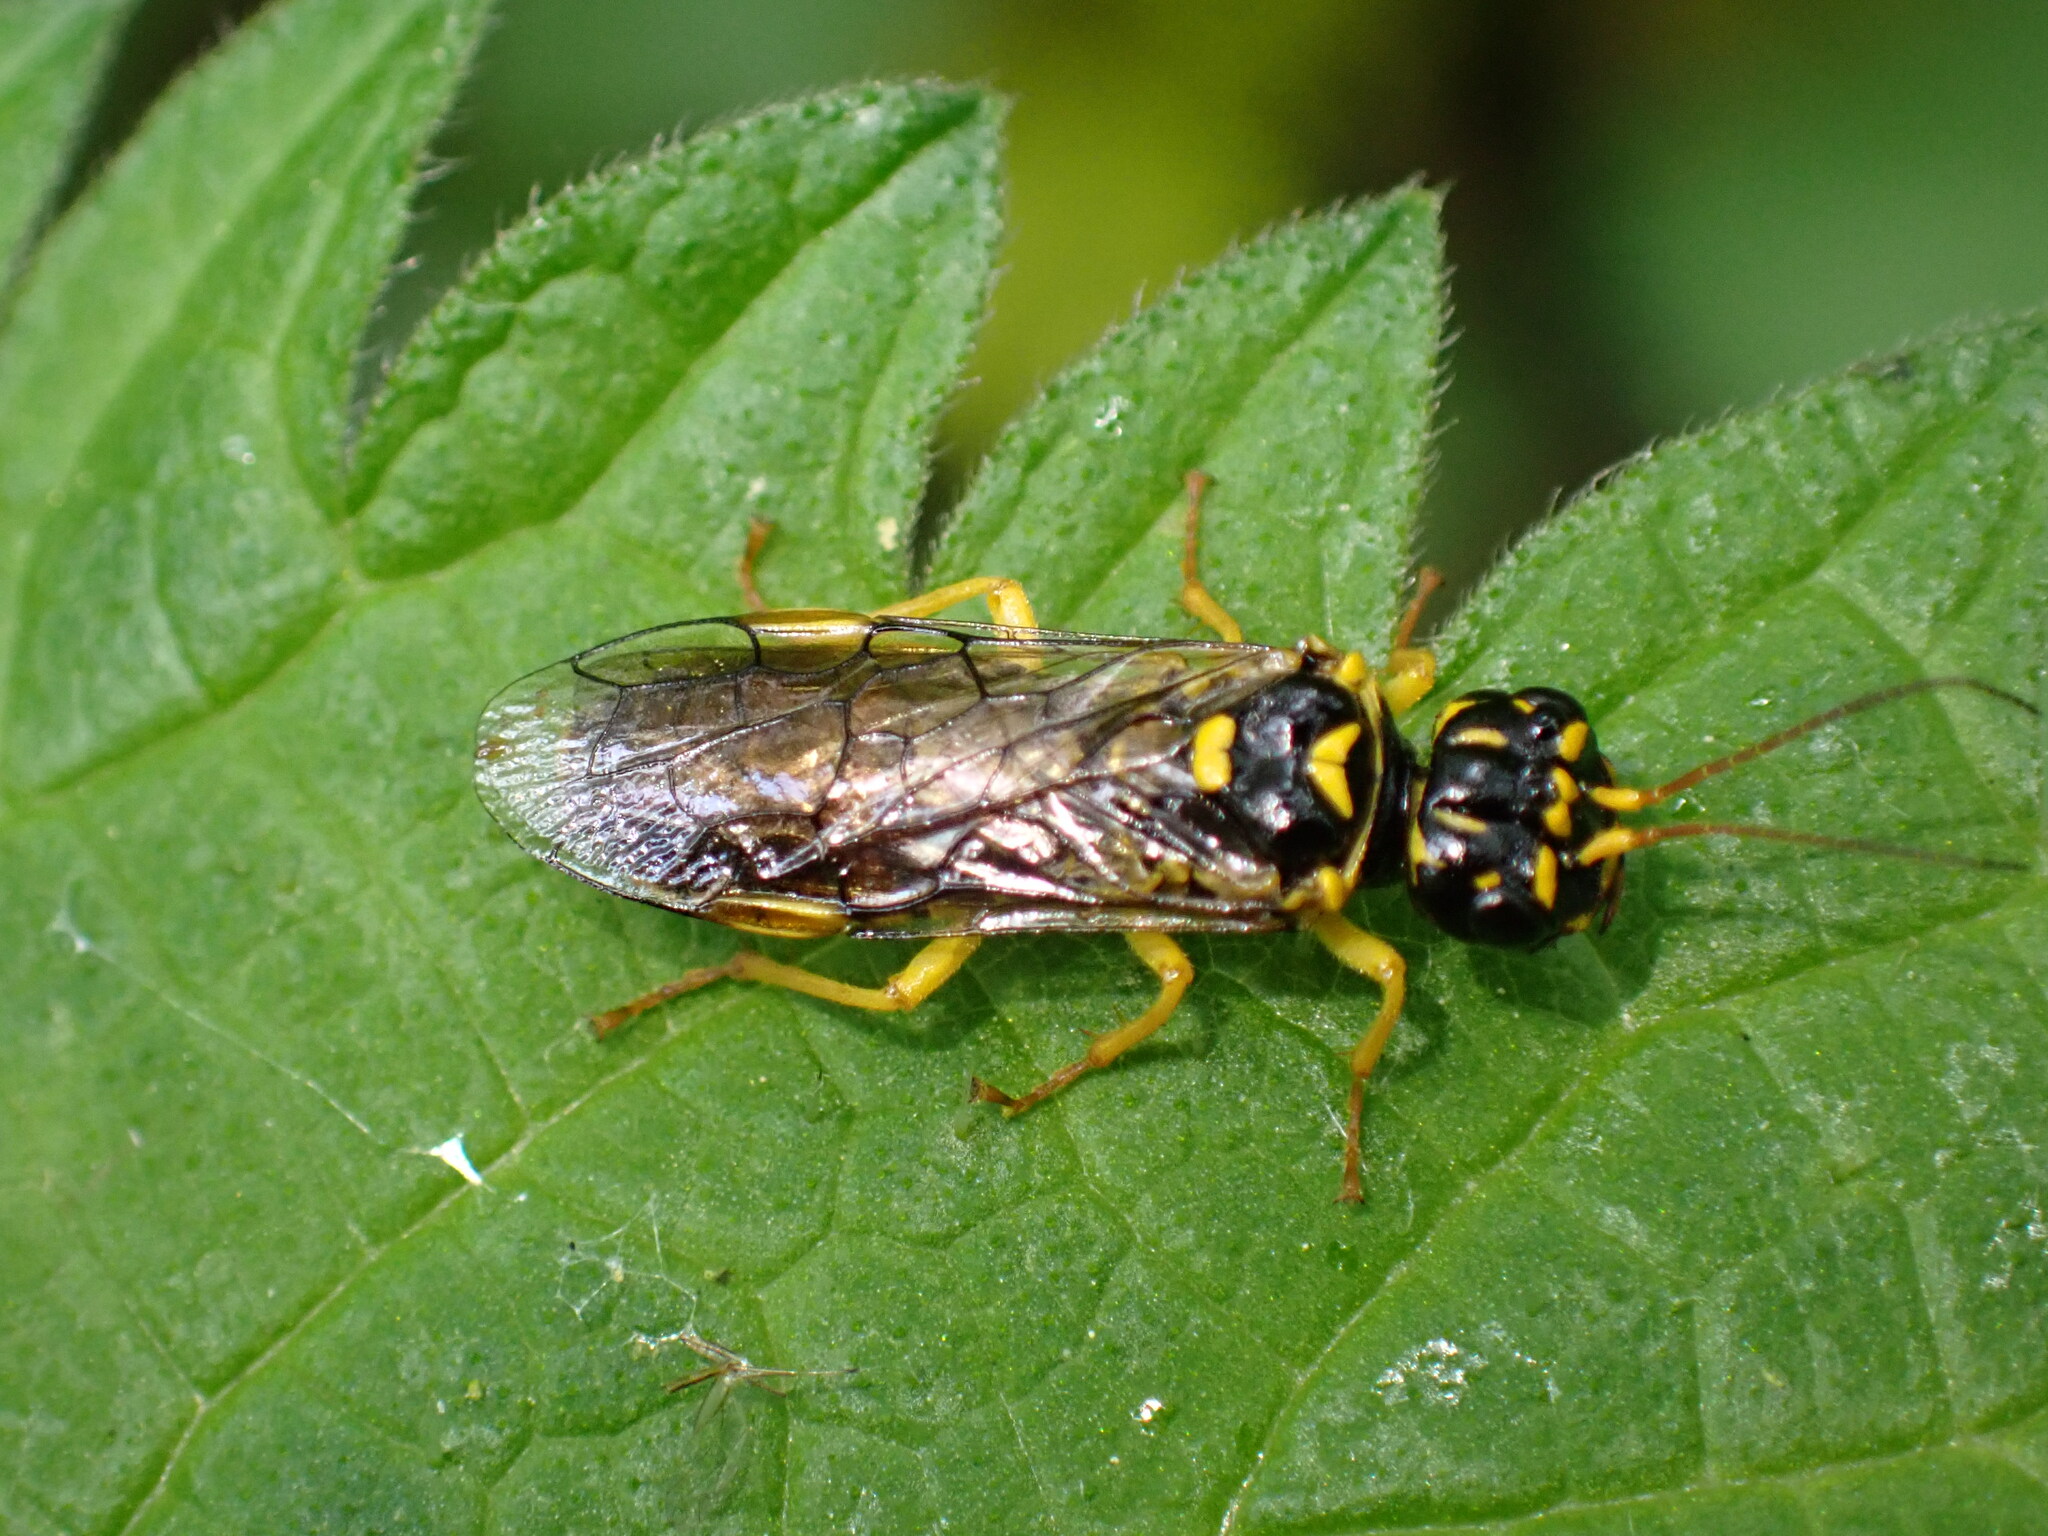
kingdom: Animalia
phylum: Arthropoda
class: Insecta
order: Hymenoptera
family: Pamphiliidae
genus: Pamphilius
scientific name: Pamphilius gyllenhali
